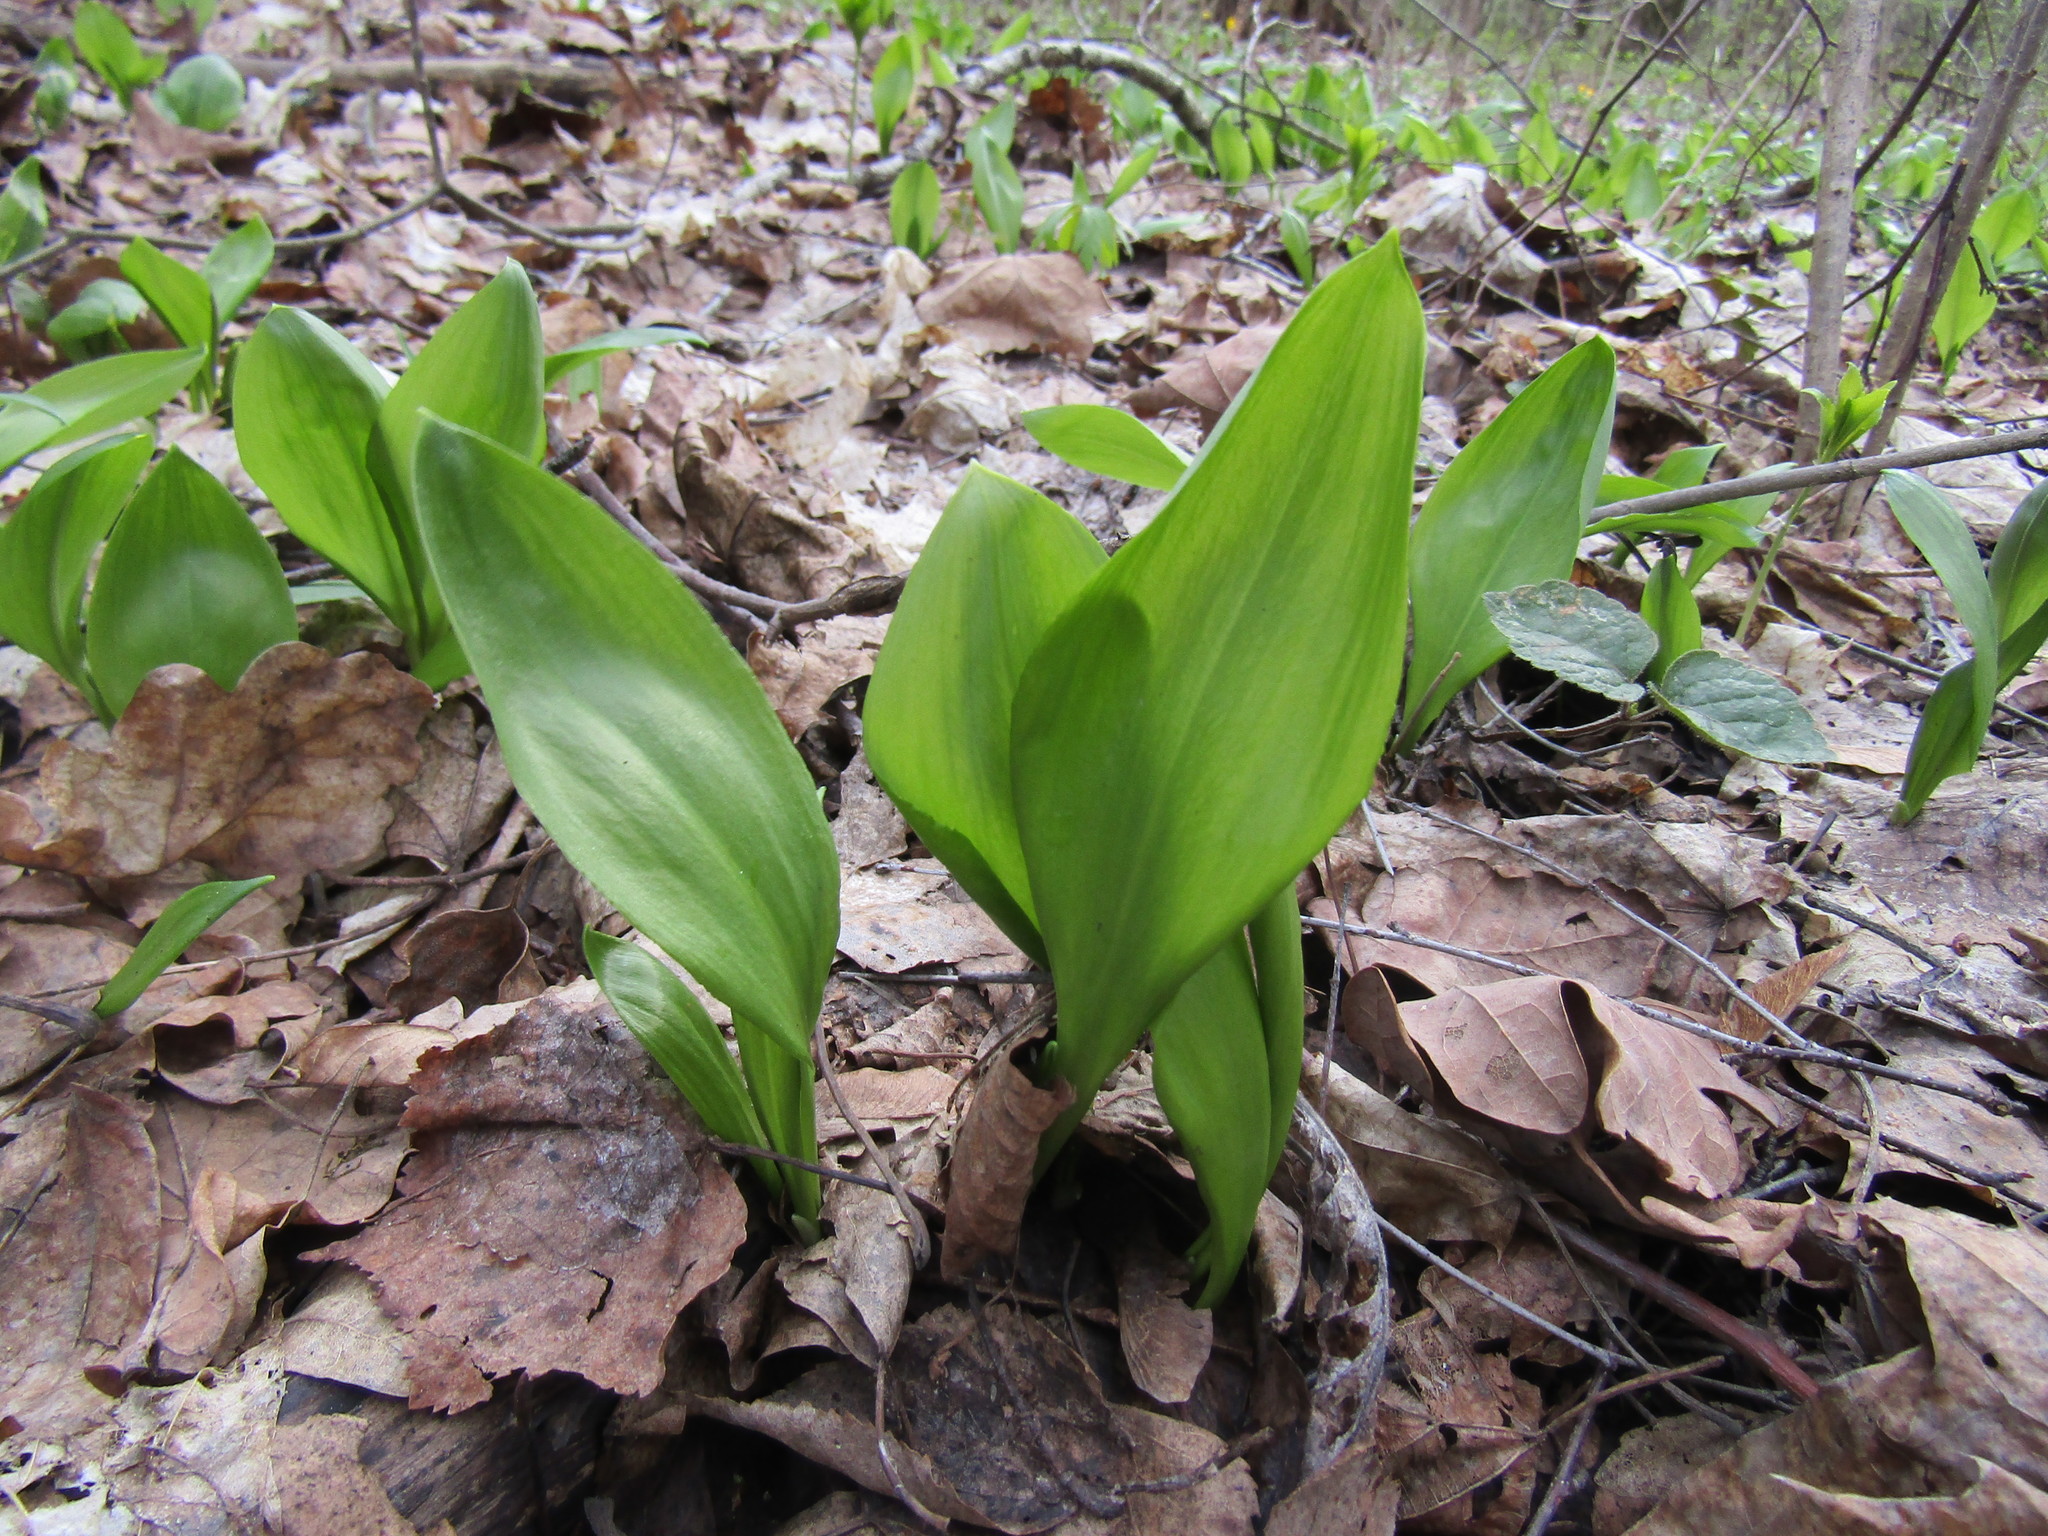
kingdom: Plantae
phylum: Tracheophyta
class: Liliopsida
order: Asparagales
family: Amaryllidaceae
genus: Allium
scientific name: Allium ursinum
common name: Ramsons
